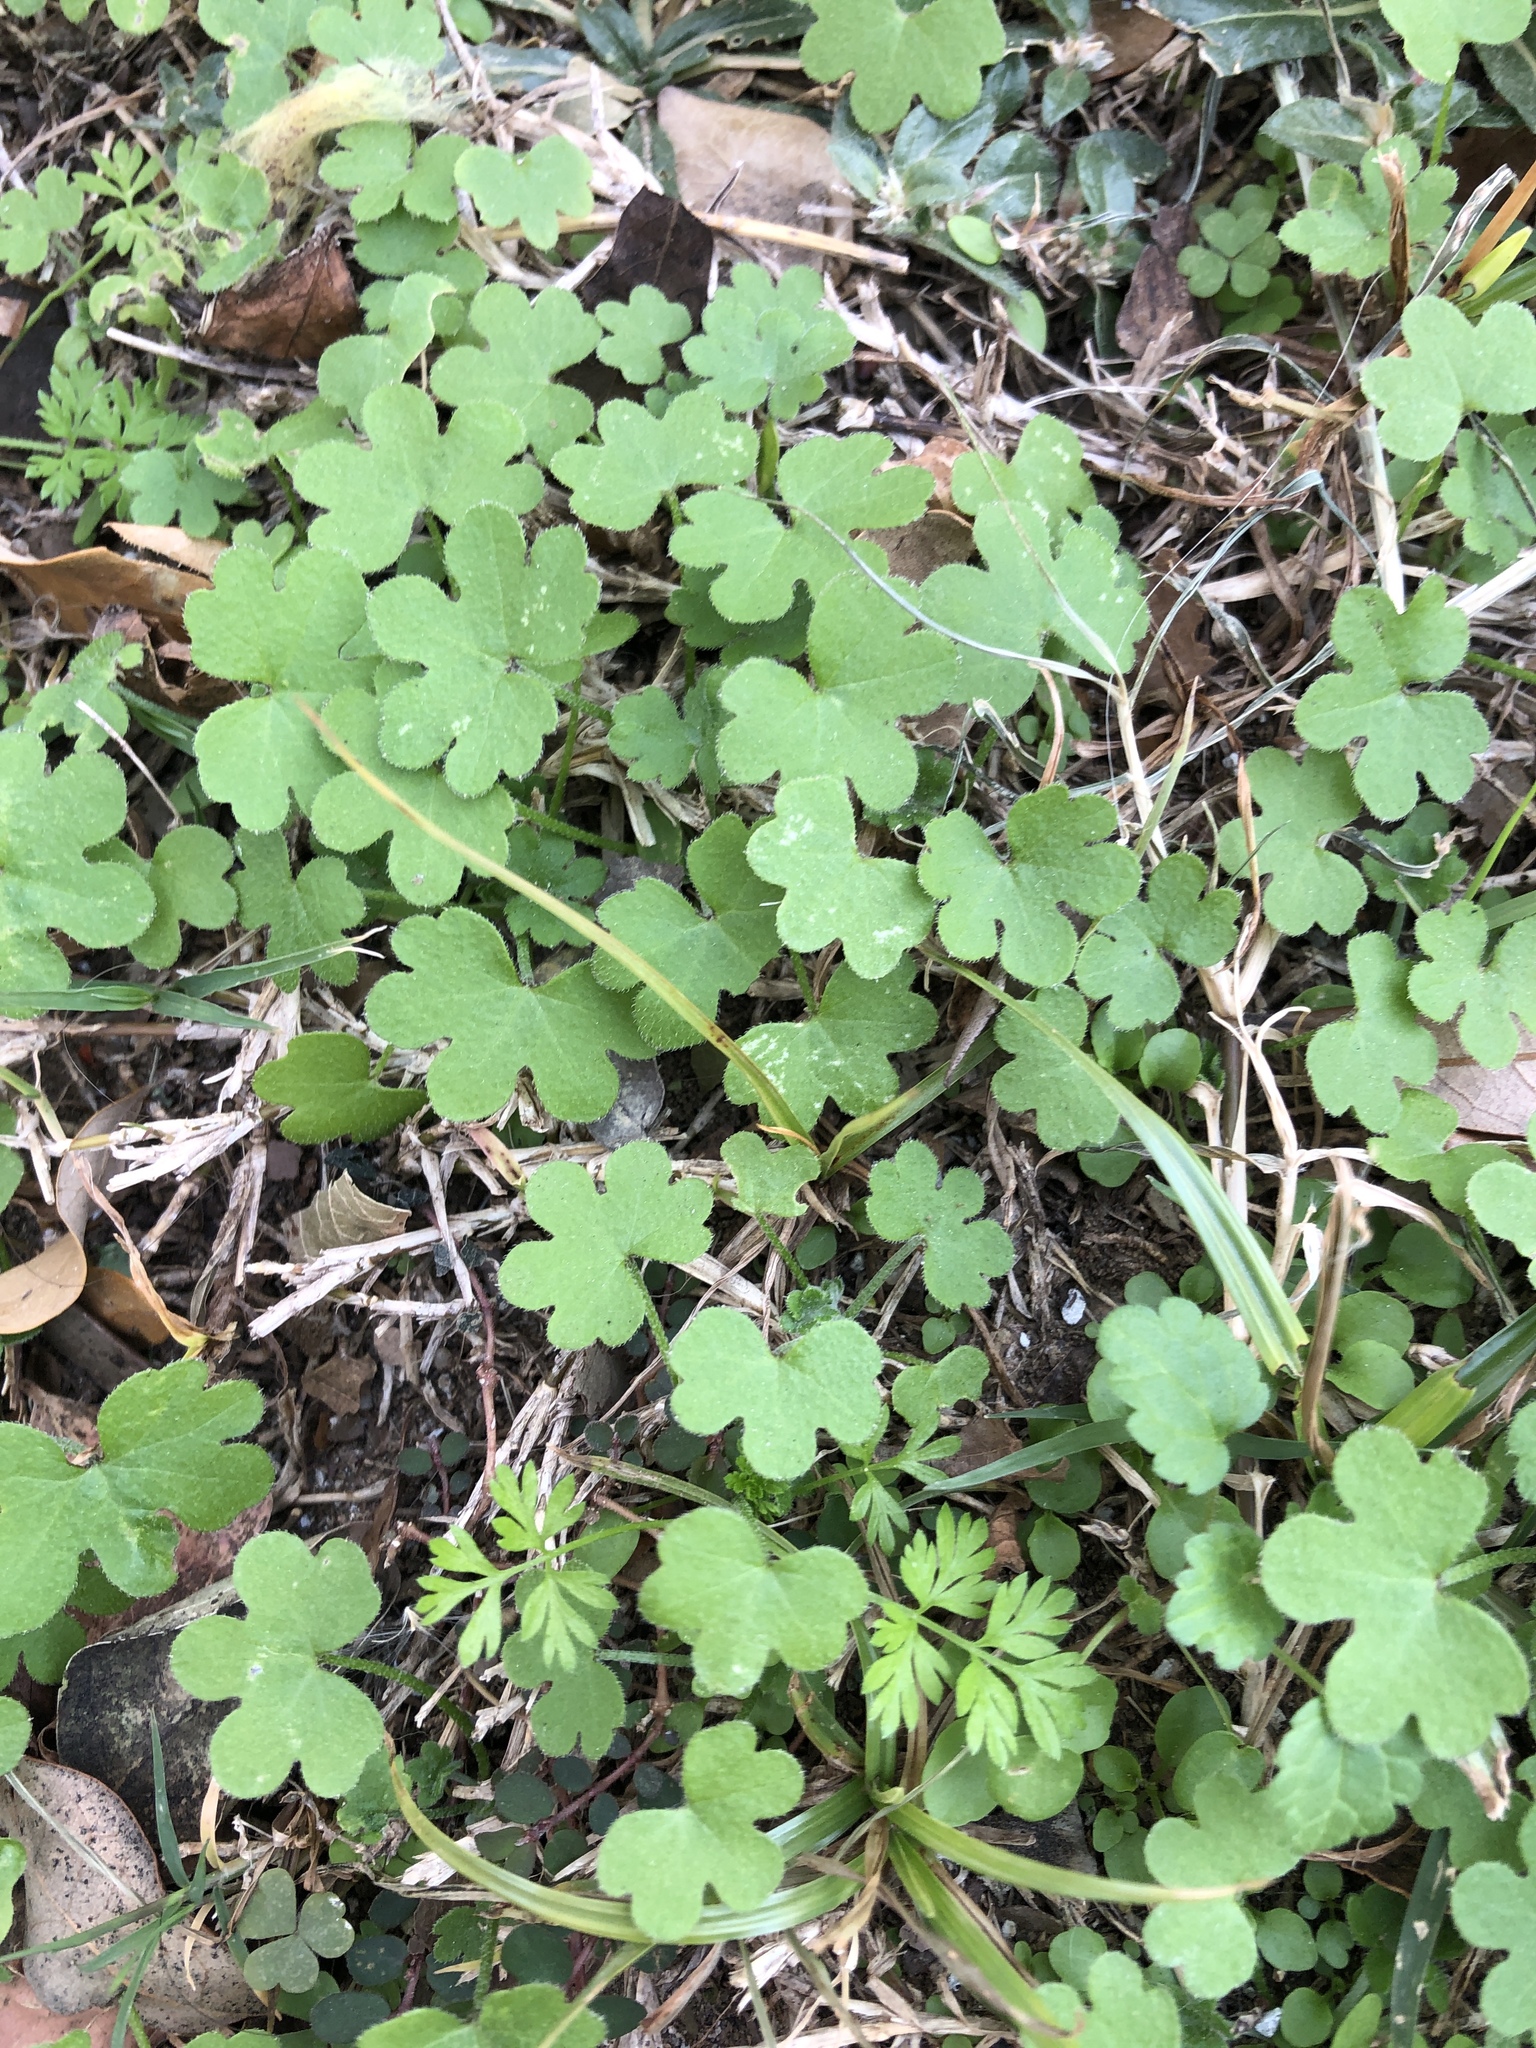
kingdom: Plantae
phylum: Tracheophyta
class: Magnoliopsida
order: Apiales
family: Apiaceae
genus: Bowlesia
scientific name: Bowlesia incana
